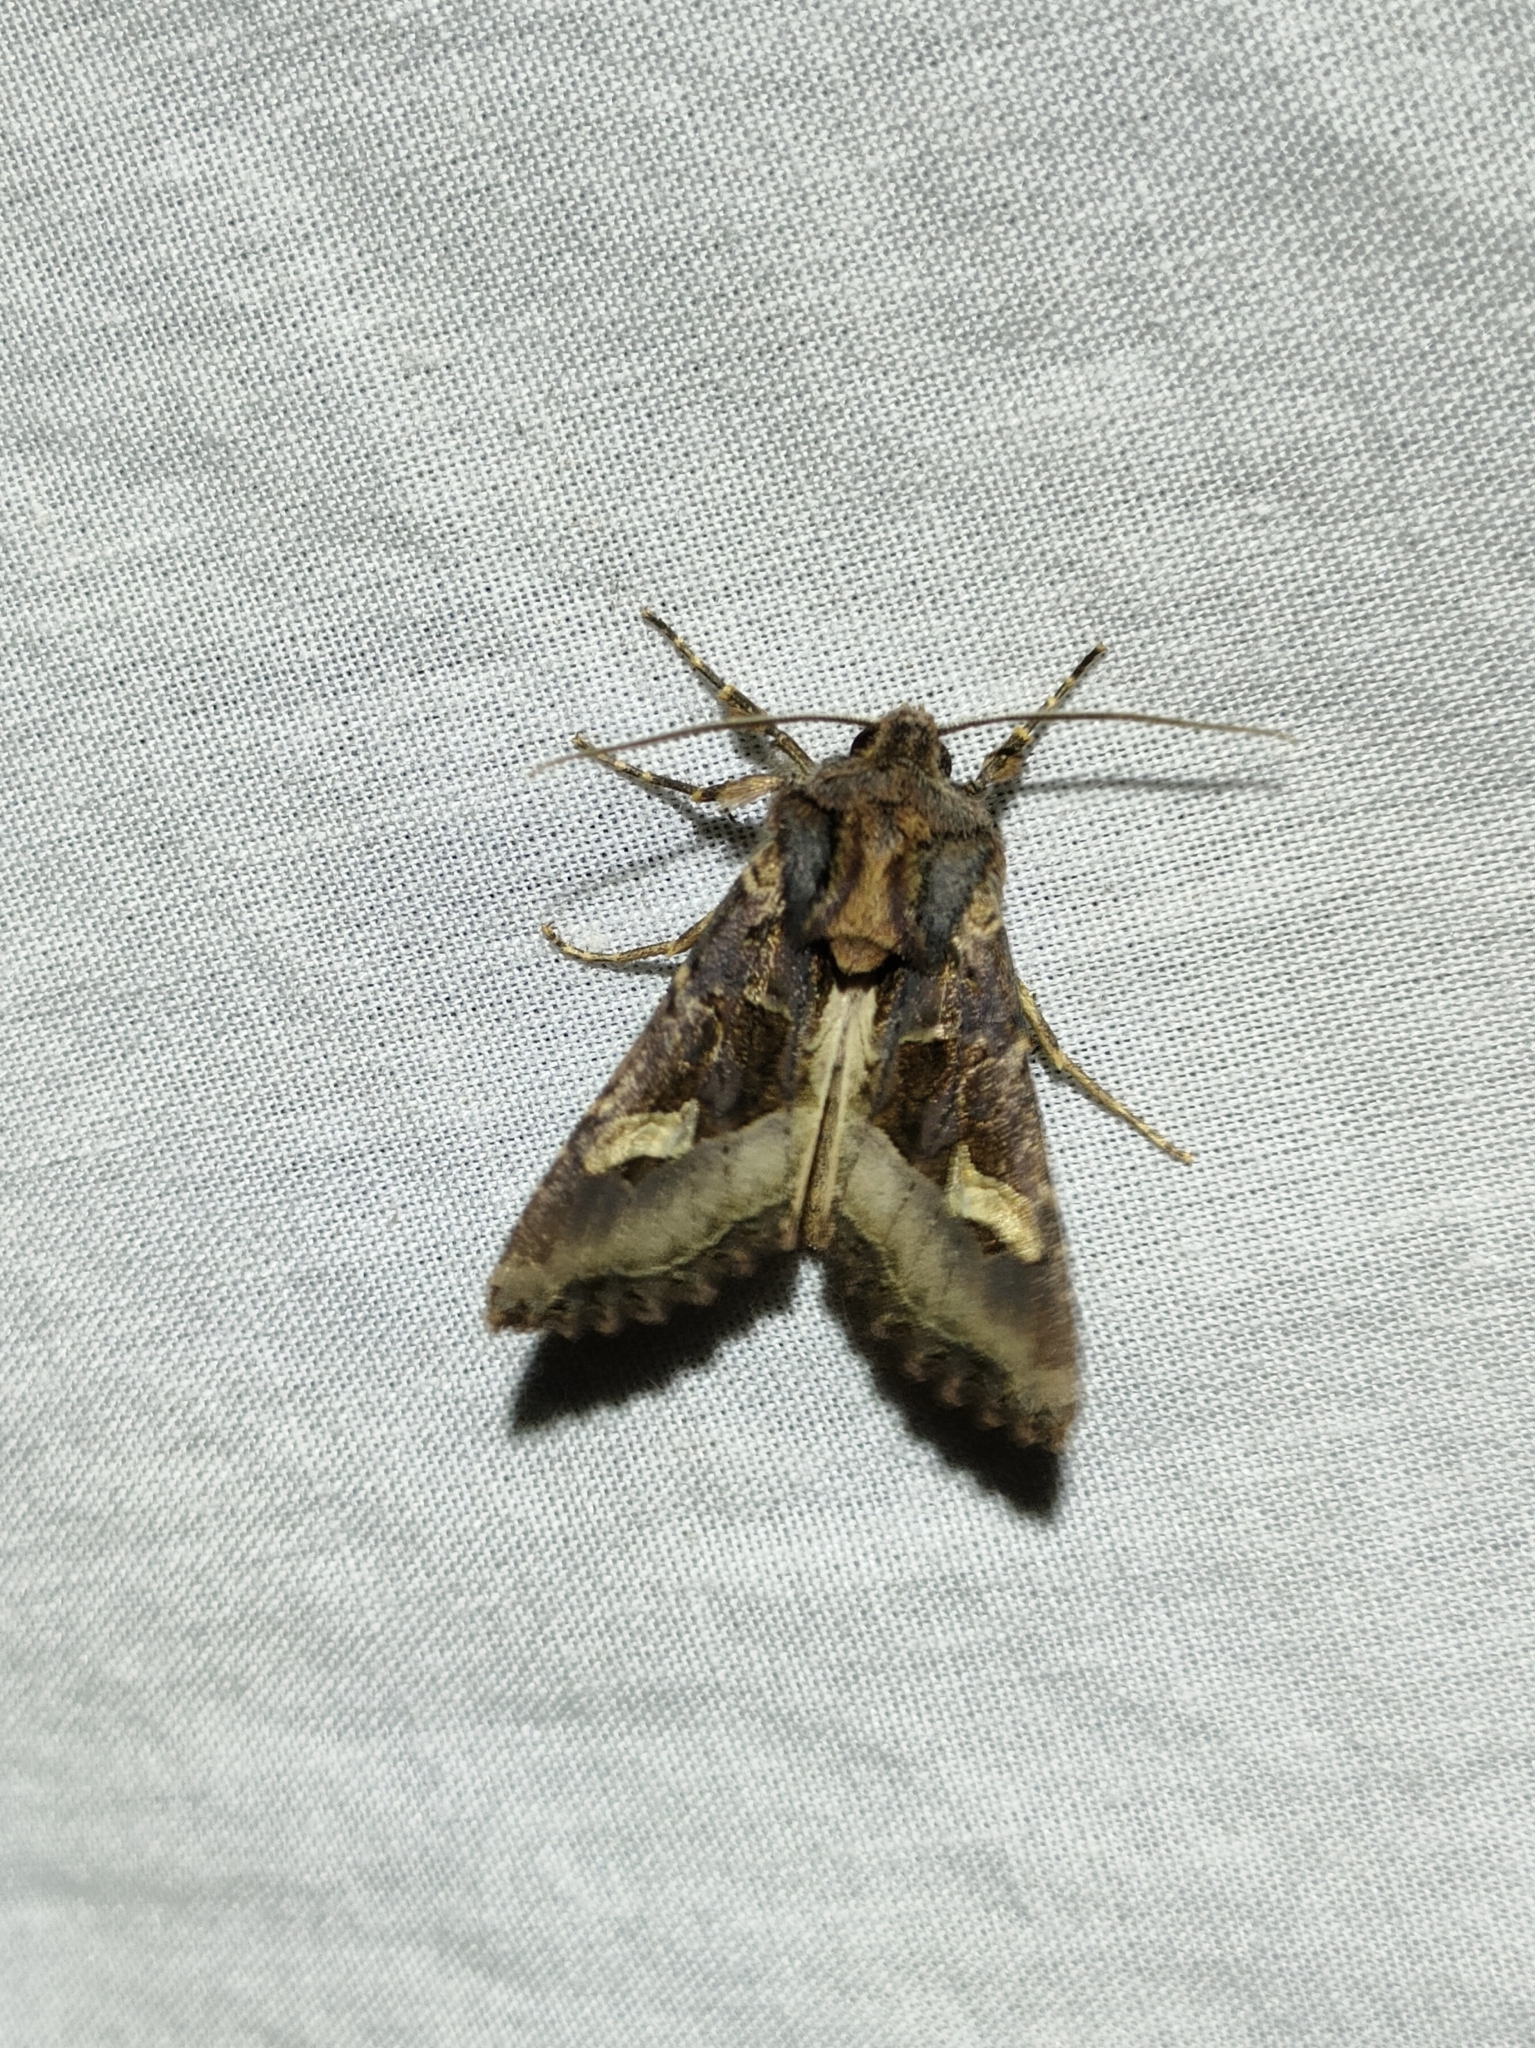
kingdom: Animalia
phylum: Arthropoda
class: Insecta
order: Lepidoptera
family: Noctuidae
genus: Trigonophora
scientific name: Trigonophora flammea
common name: Flame brocade
